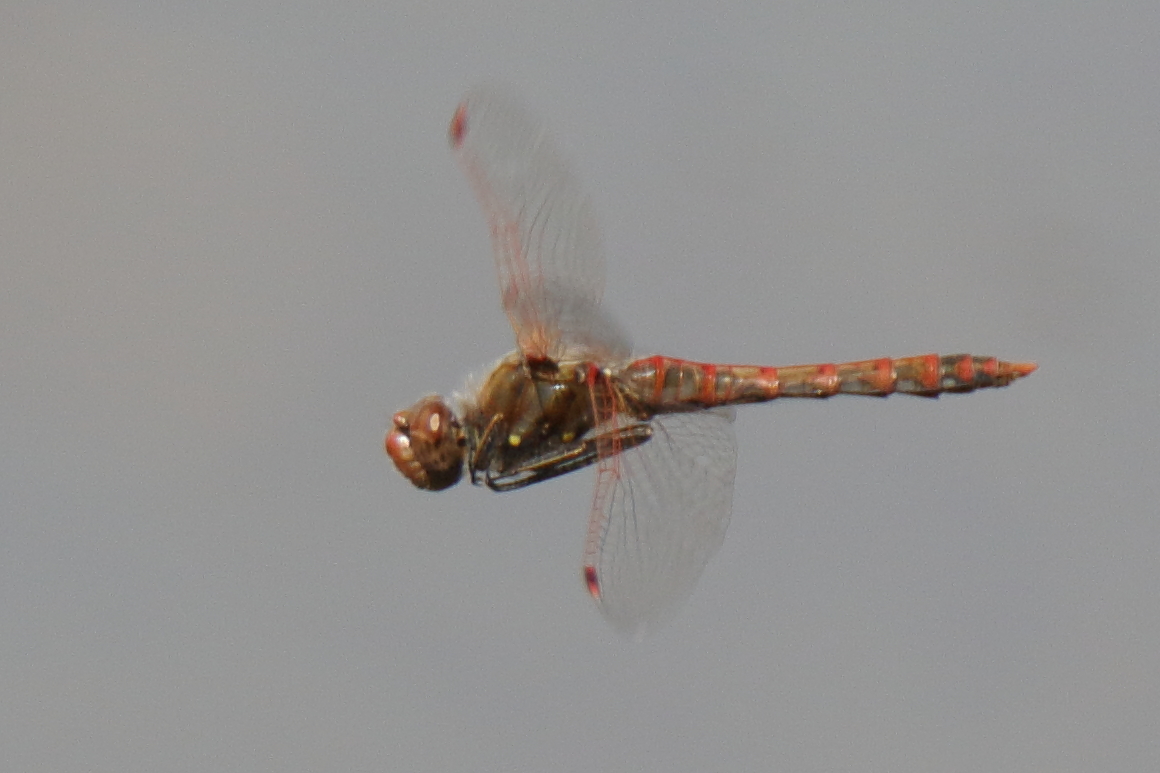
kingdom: Animalia
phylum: Arthropoda
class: Insecta
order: Odonata
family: Libellulidae
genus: Sympetrum
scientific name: Sympetrum corruptum
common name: Variegated meadowhawk
